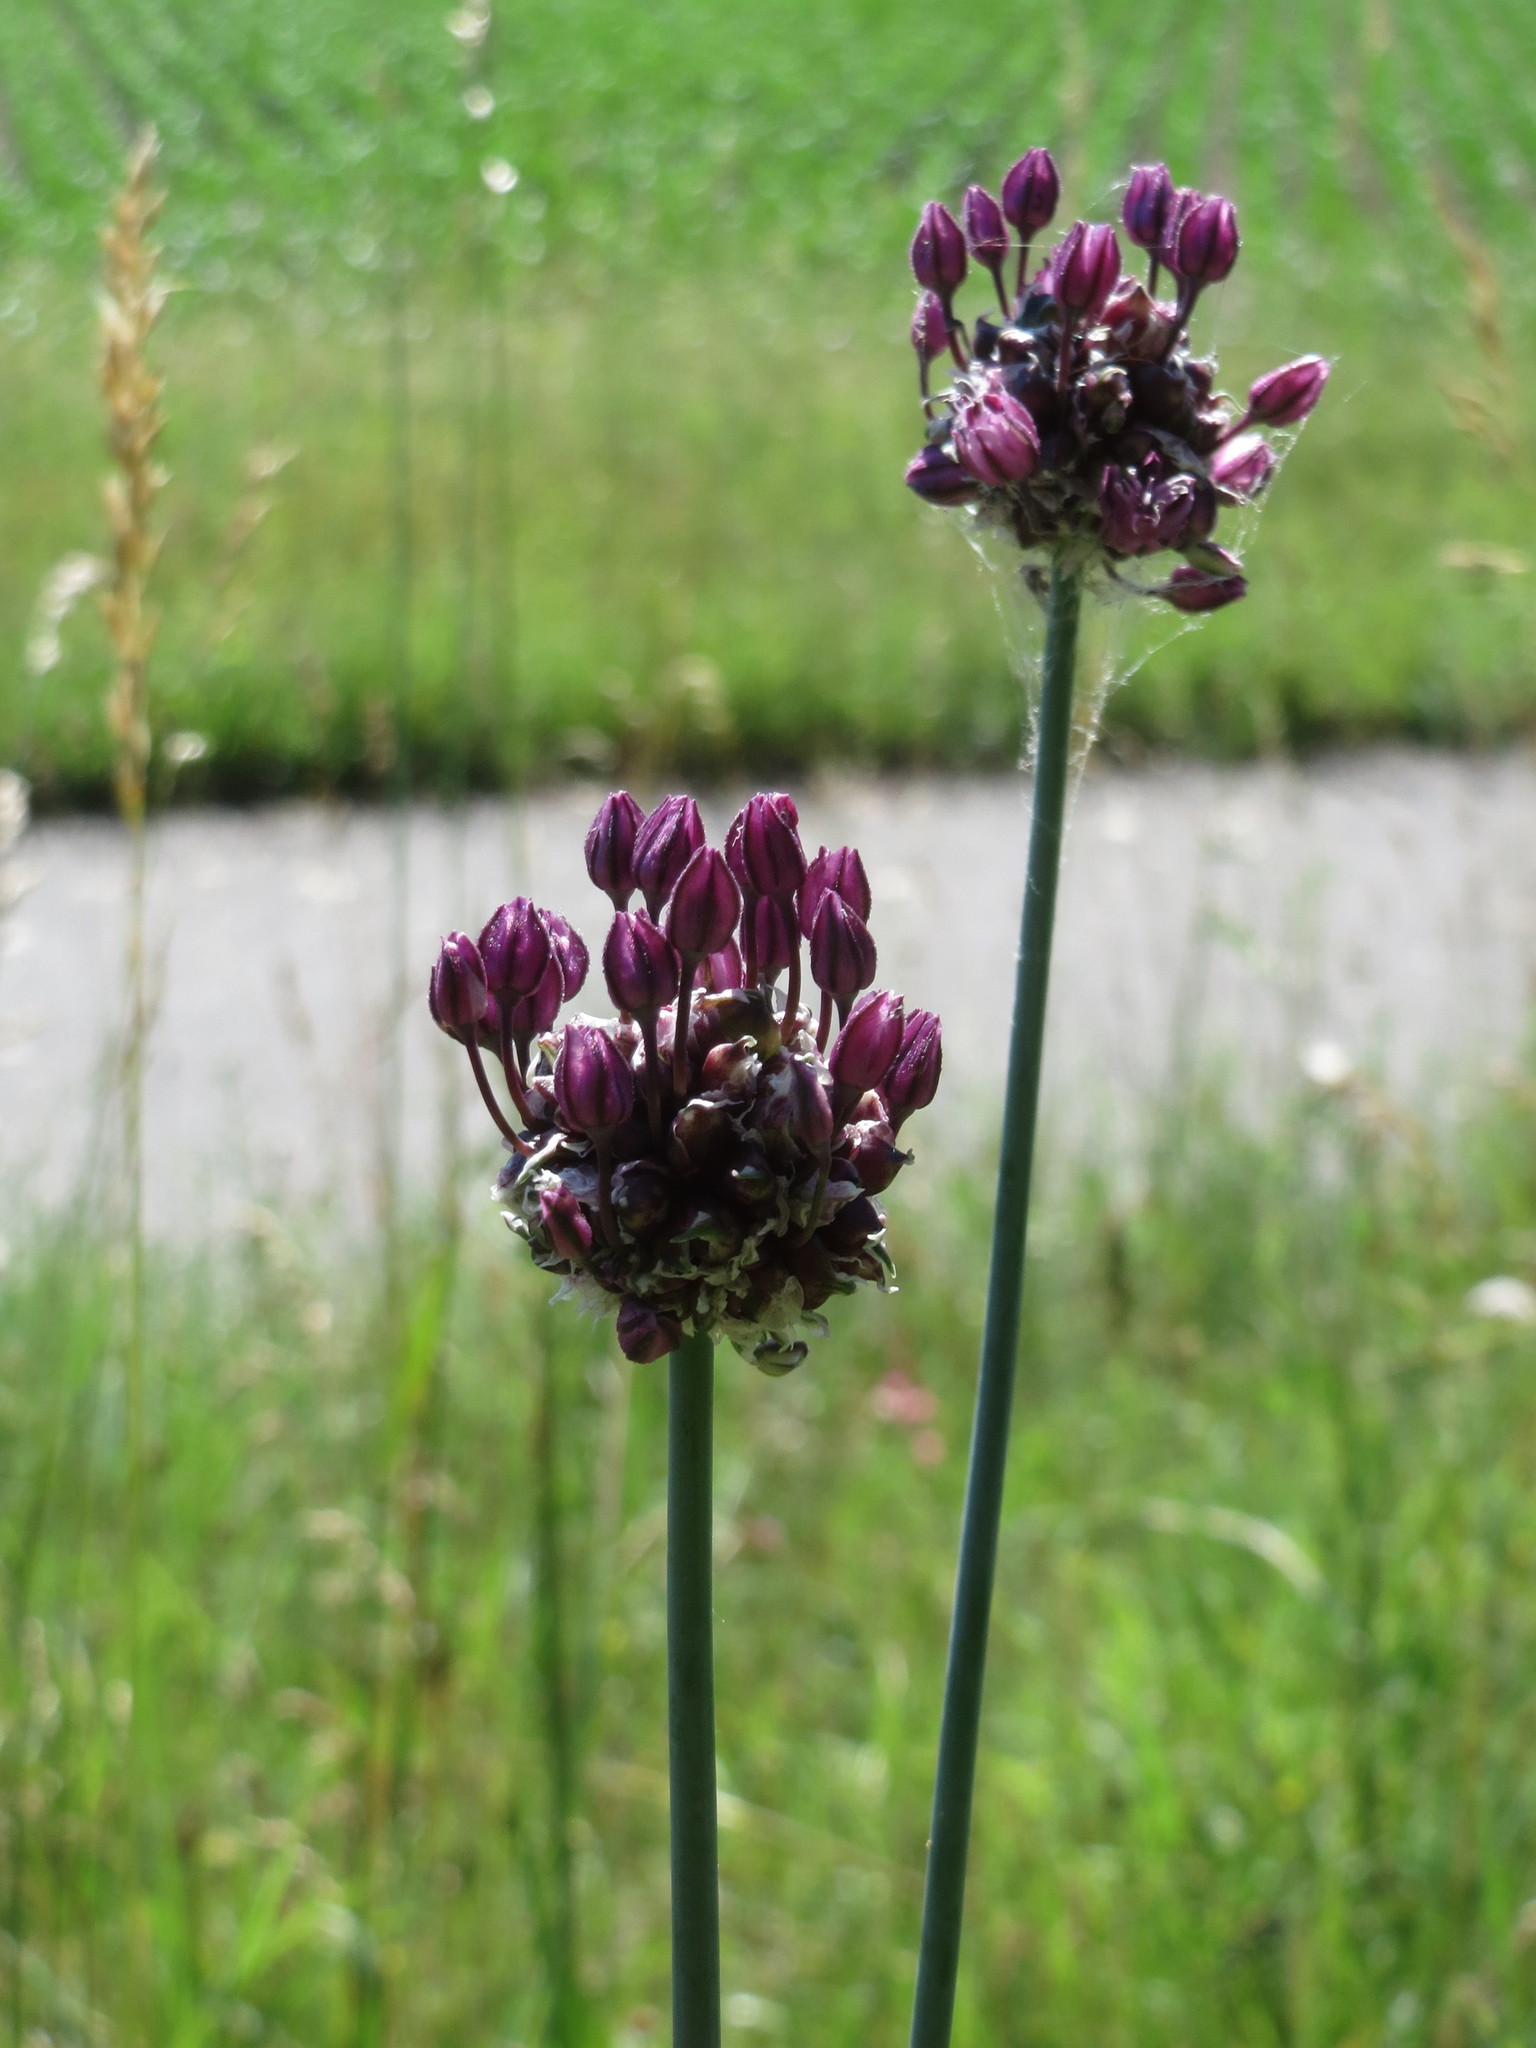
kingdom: Plantae
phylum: Tracheophyta
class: Liliopsida
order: Asparagales
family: Amaryllidaceae
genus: Allium
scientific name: Allium scorodoprasum
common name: Sand leek
